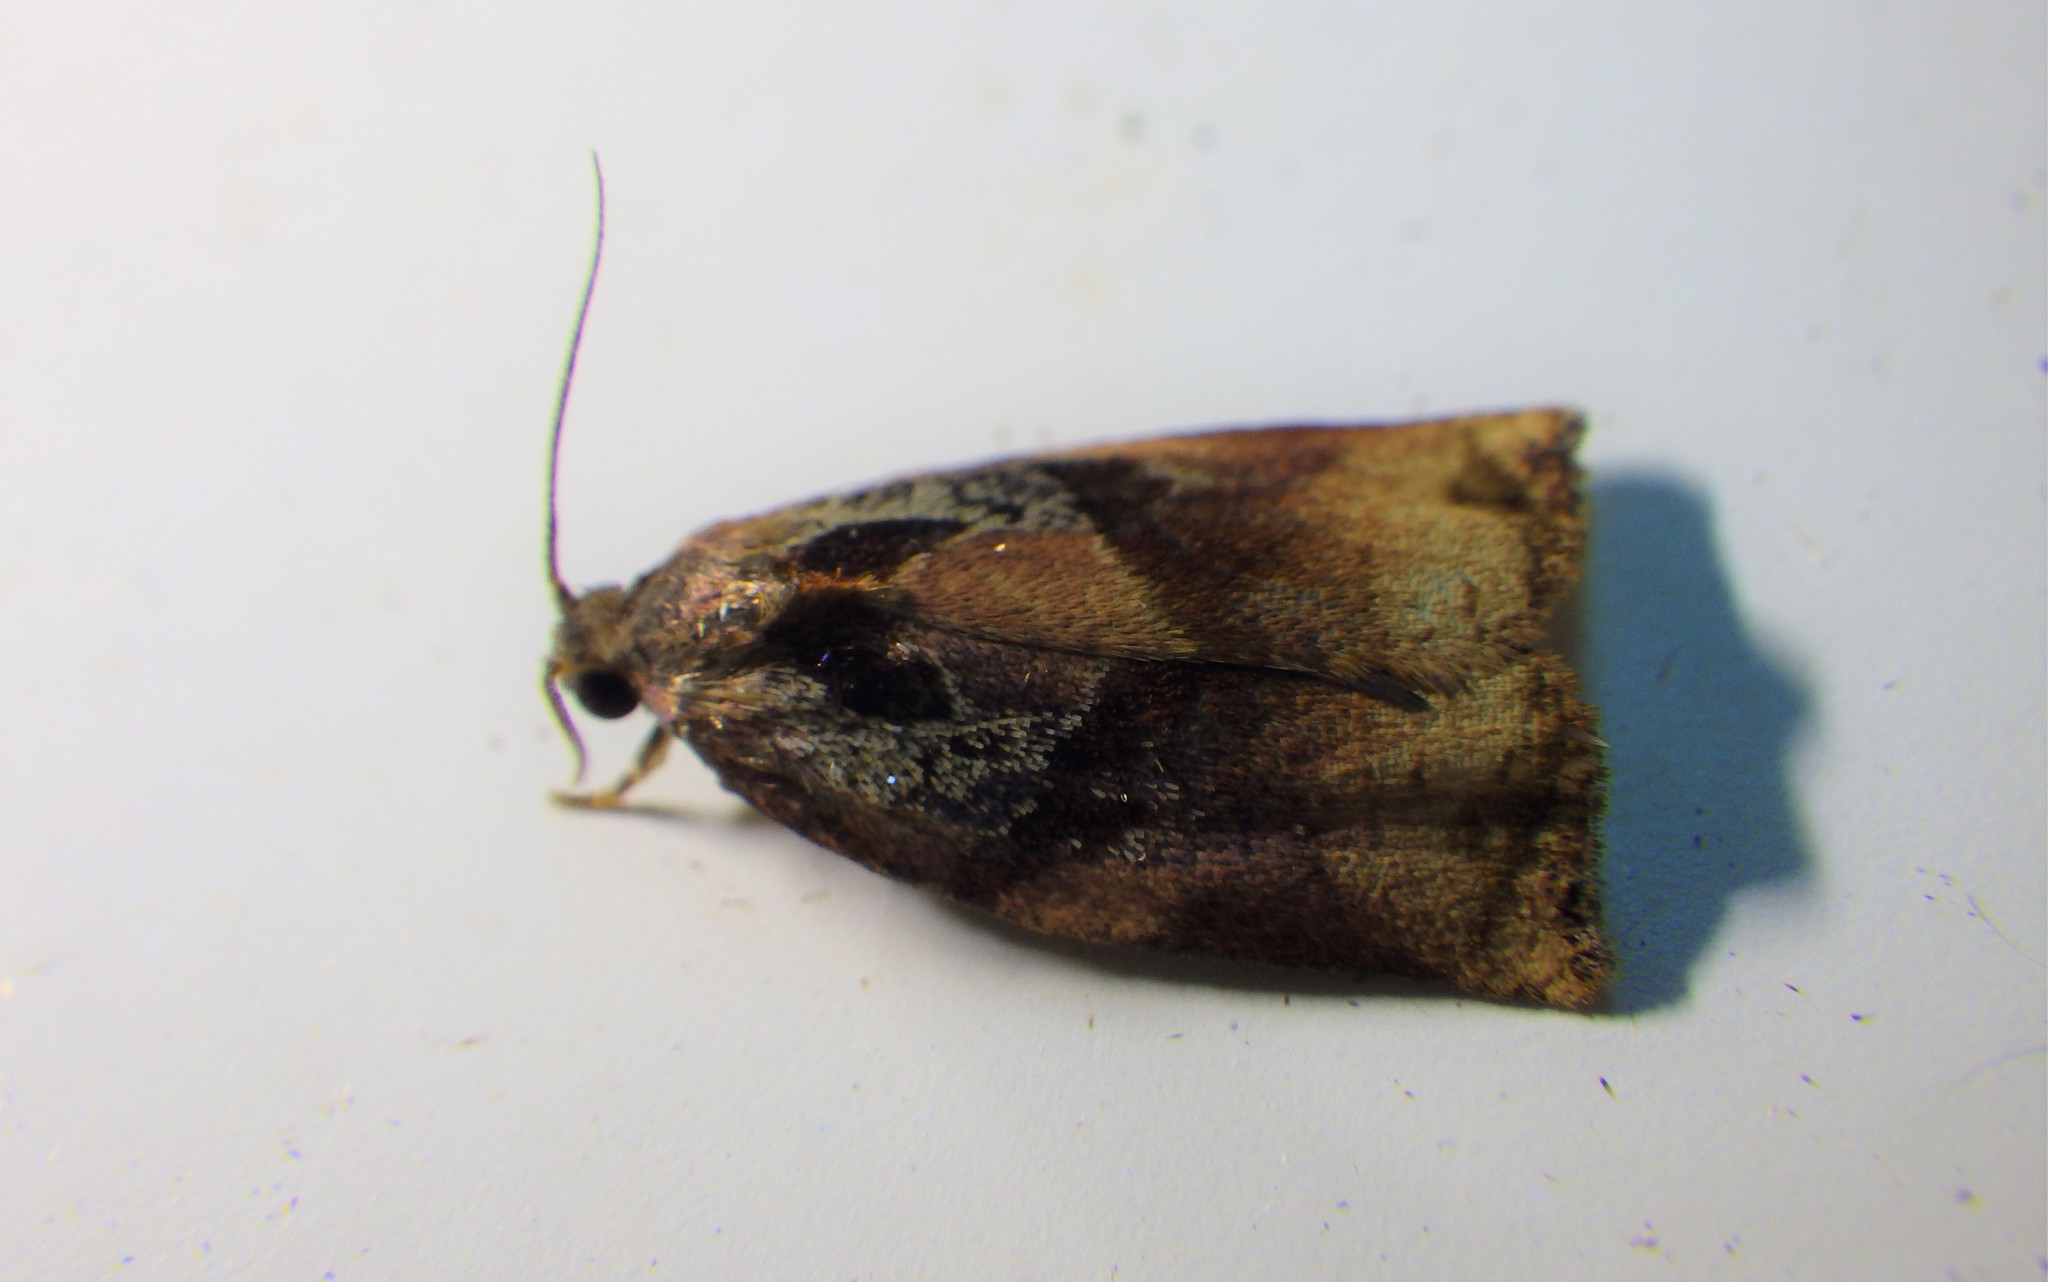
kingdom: Animalia
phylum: Arthropoda
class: Insecta
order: Lepidoptera
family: Tortricidae
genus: Archips
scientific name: Archips podana
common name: Large fruit-tree tortrix
